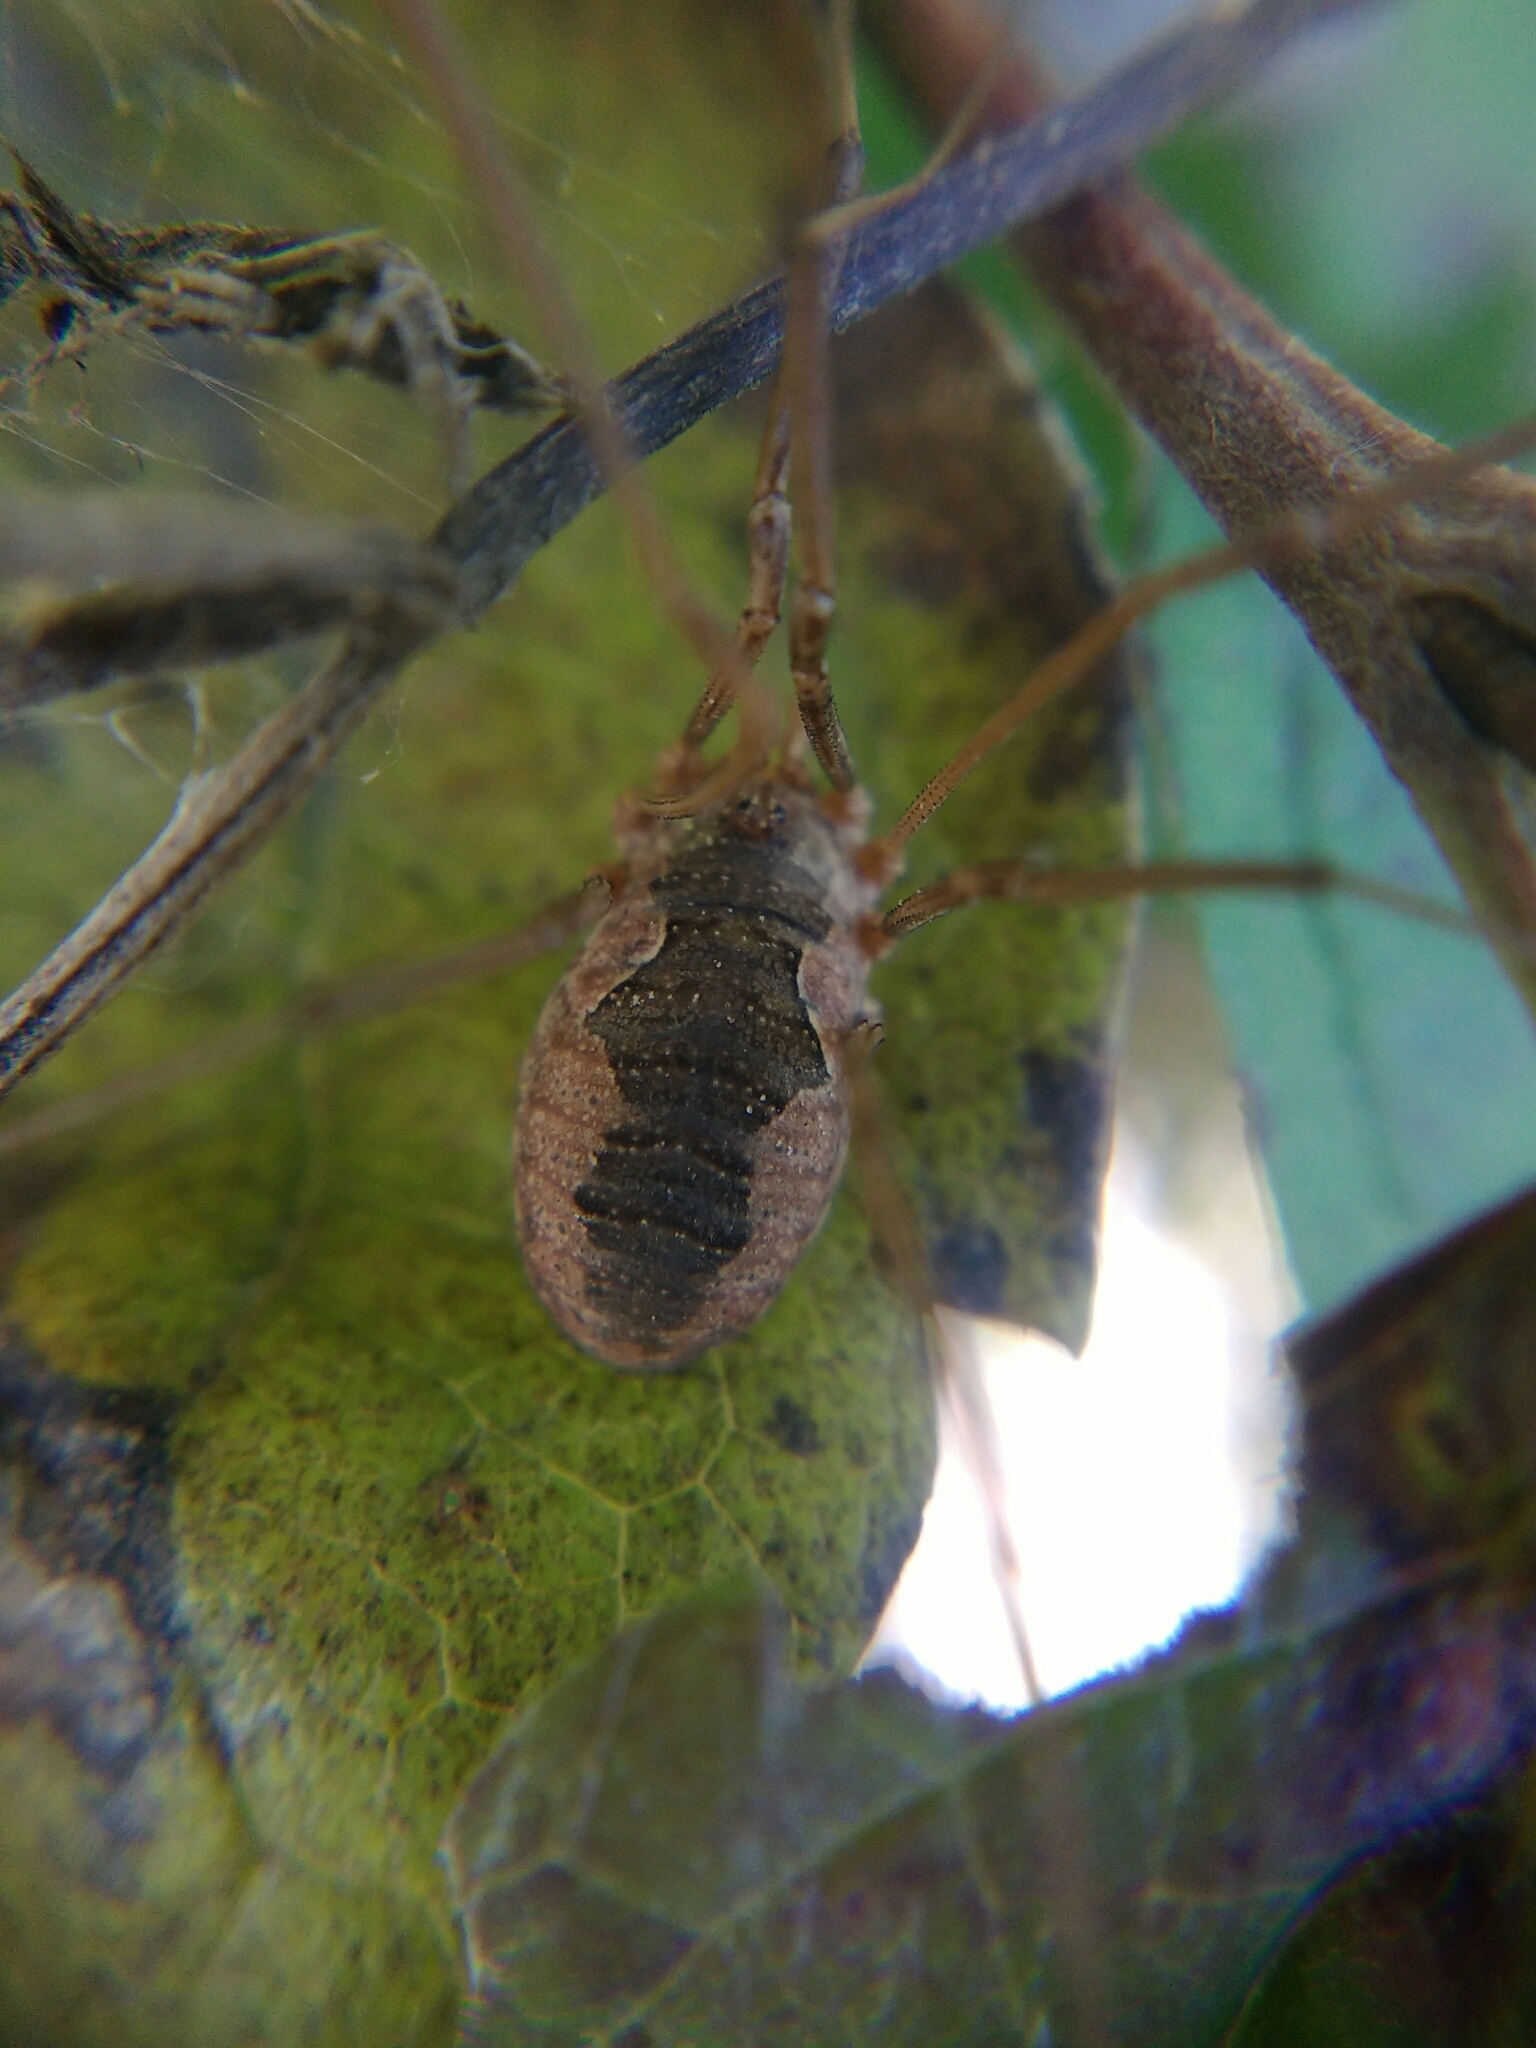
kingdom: Animalia
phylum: Arthropoda
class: Arachnida
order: Opiliones
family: Phalangiidae
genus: Phalangium
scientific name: Phalangium opilio
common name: Daddy longleg
